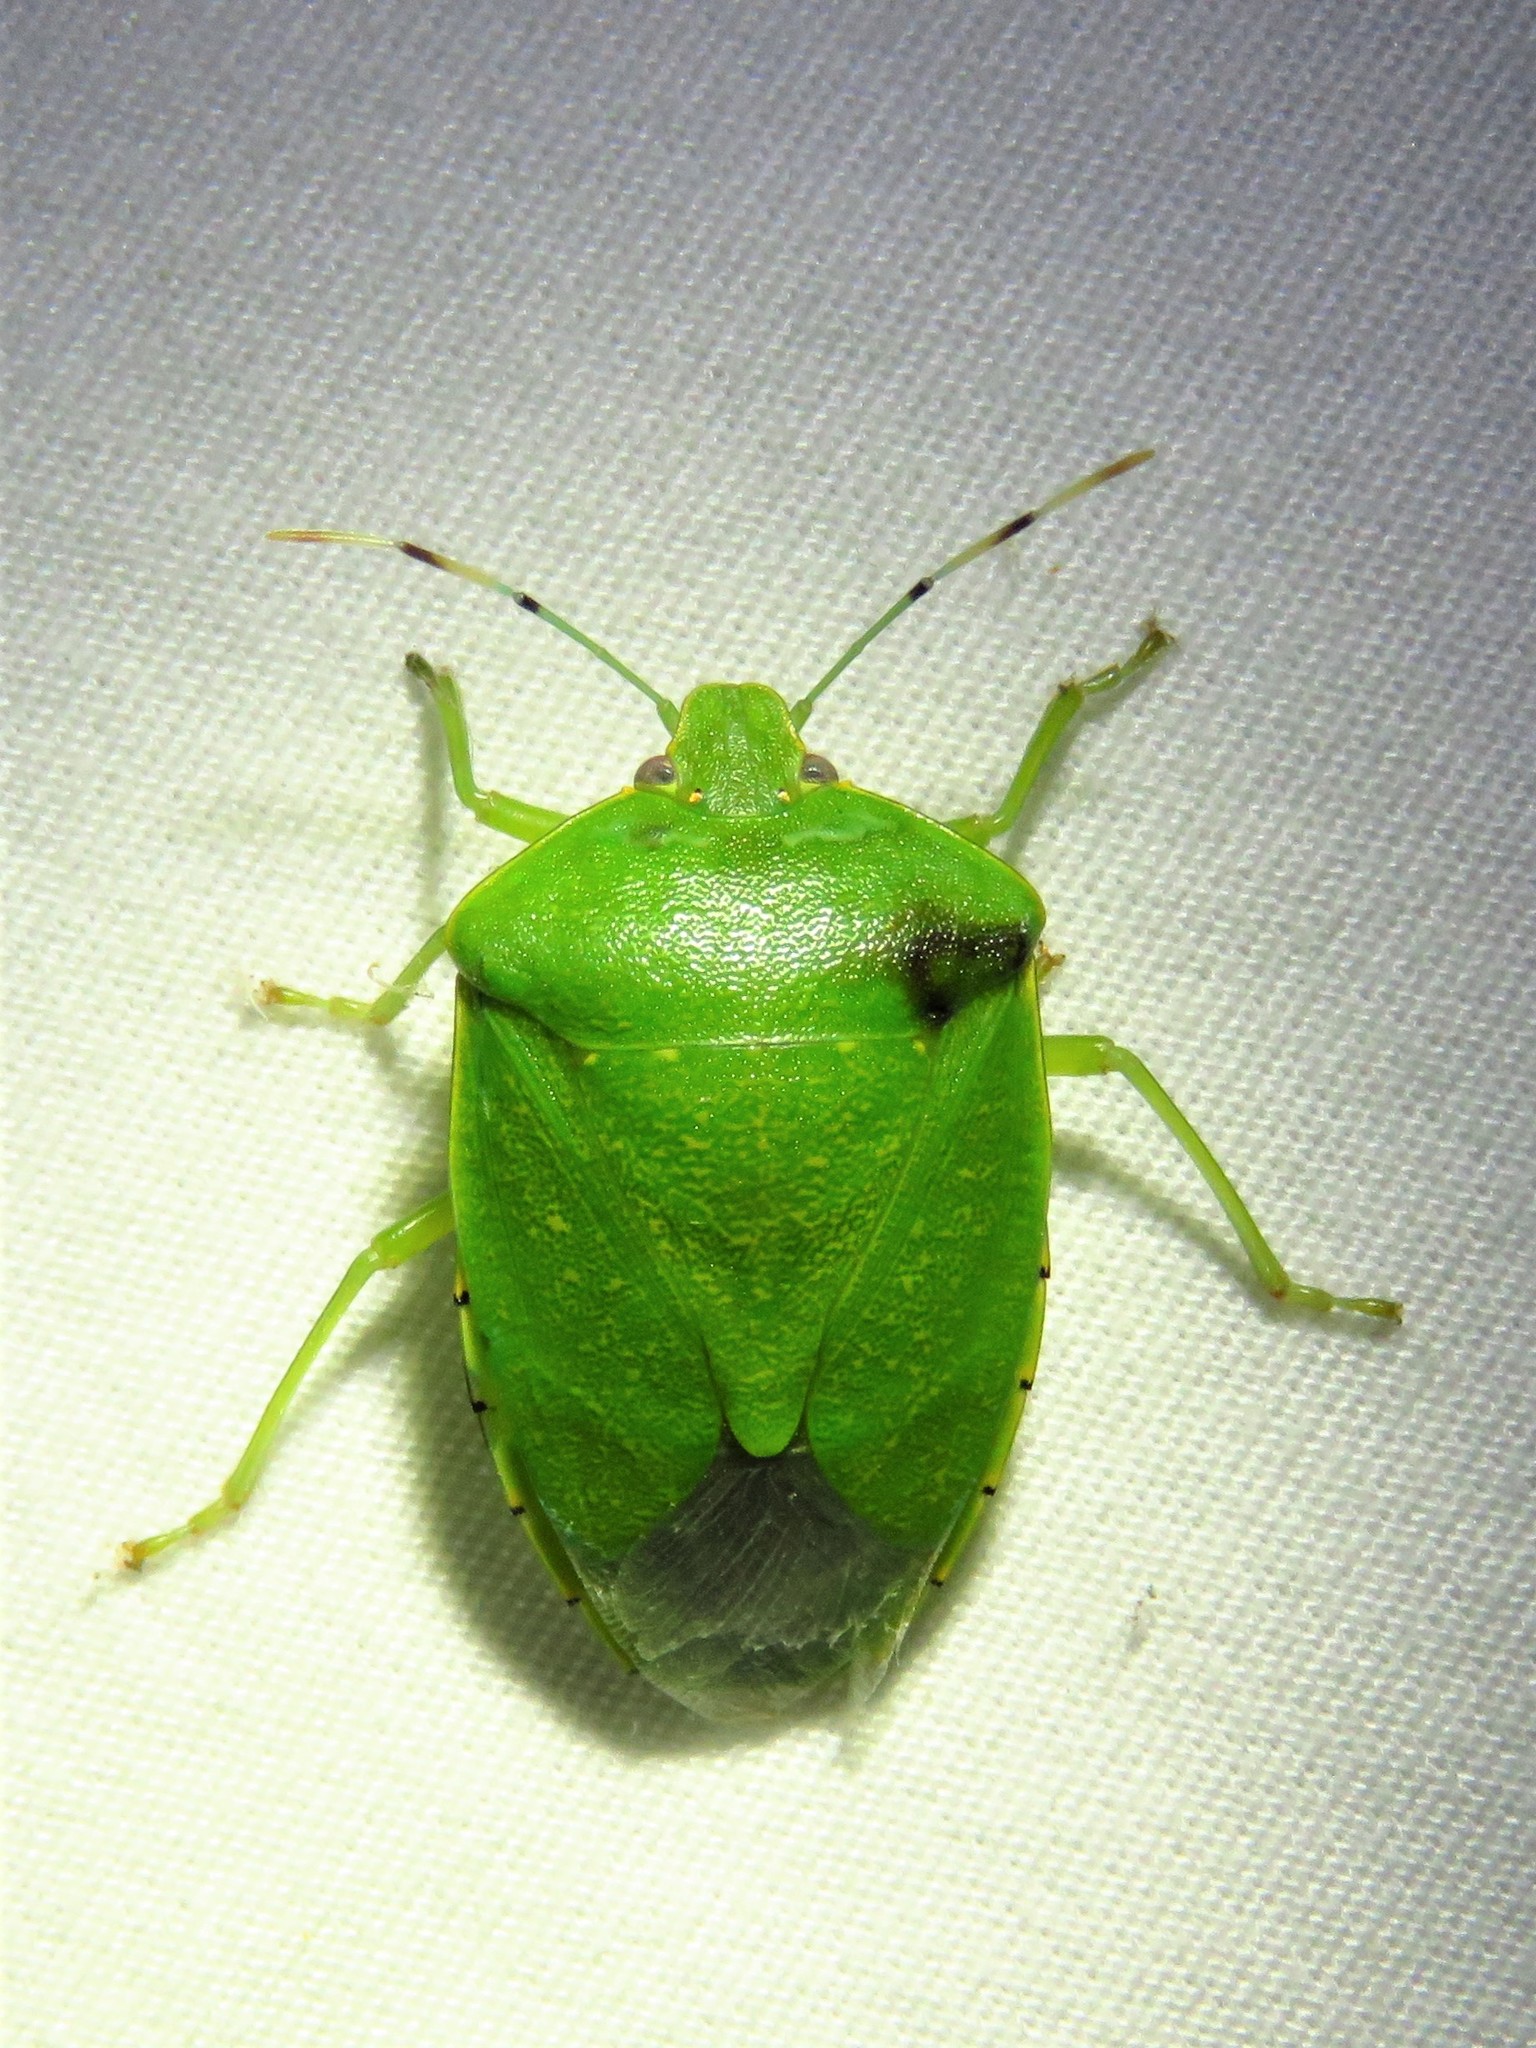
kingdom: Animalia
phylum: Arthropoda
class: Insecta
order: Hemiptera
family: Pentatomidae
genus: Chinavia
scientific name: Chinavia hilaris
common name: Green stink bug
